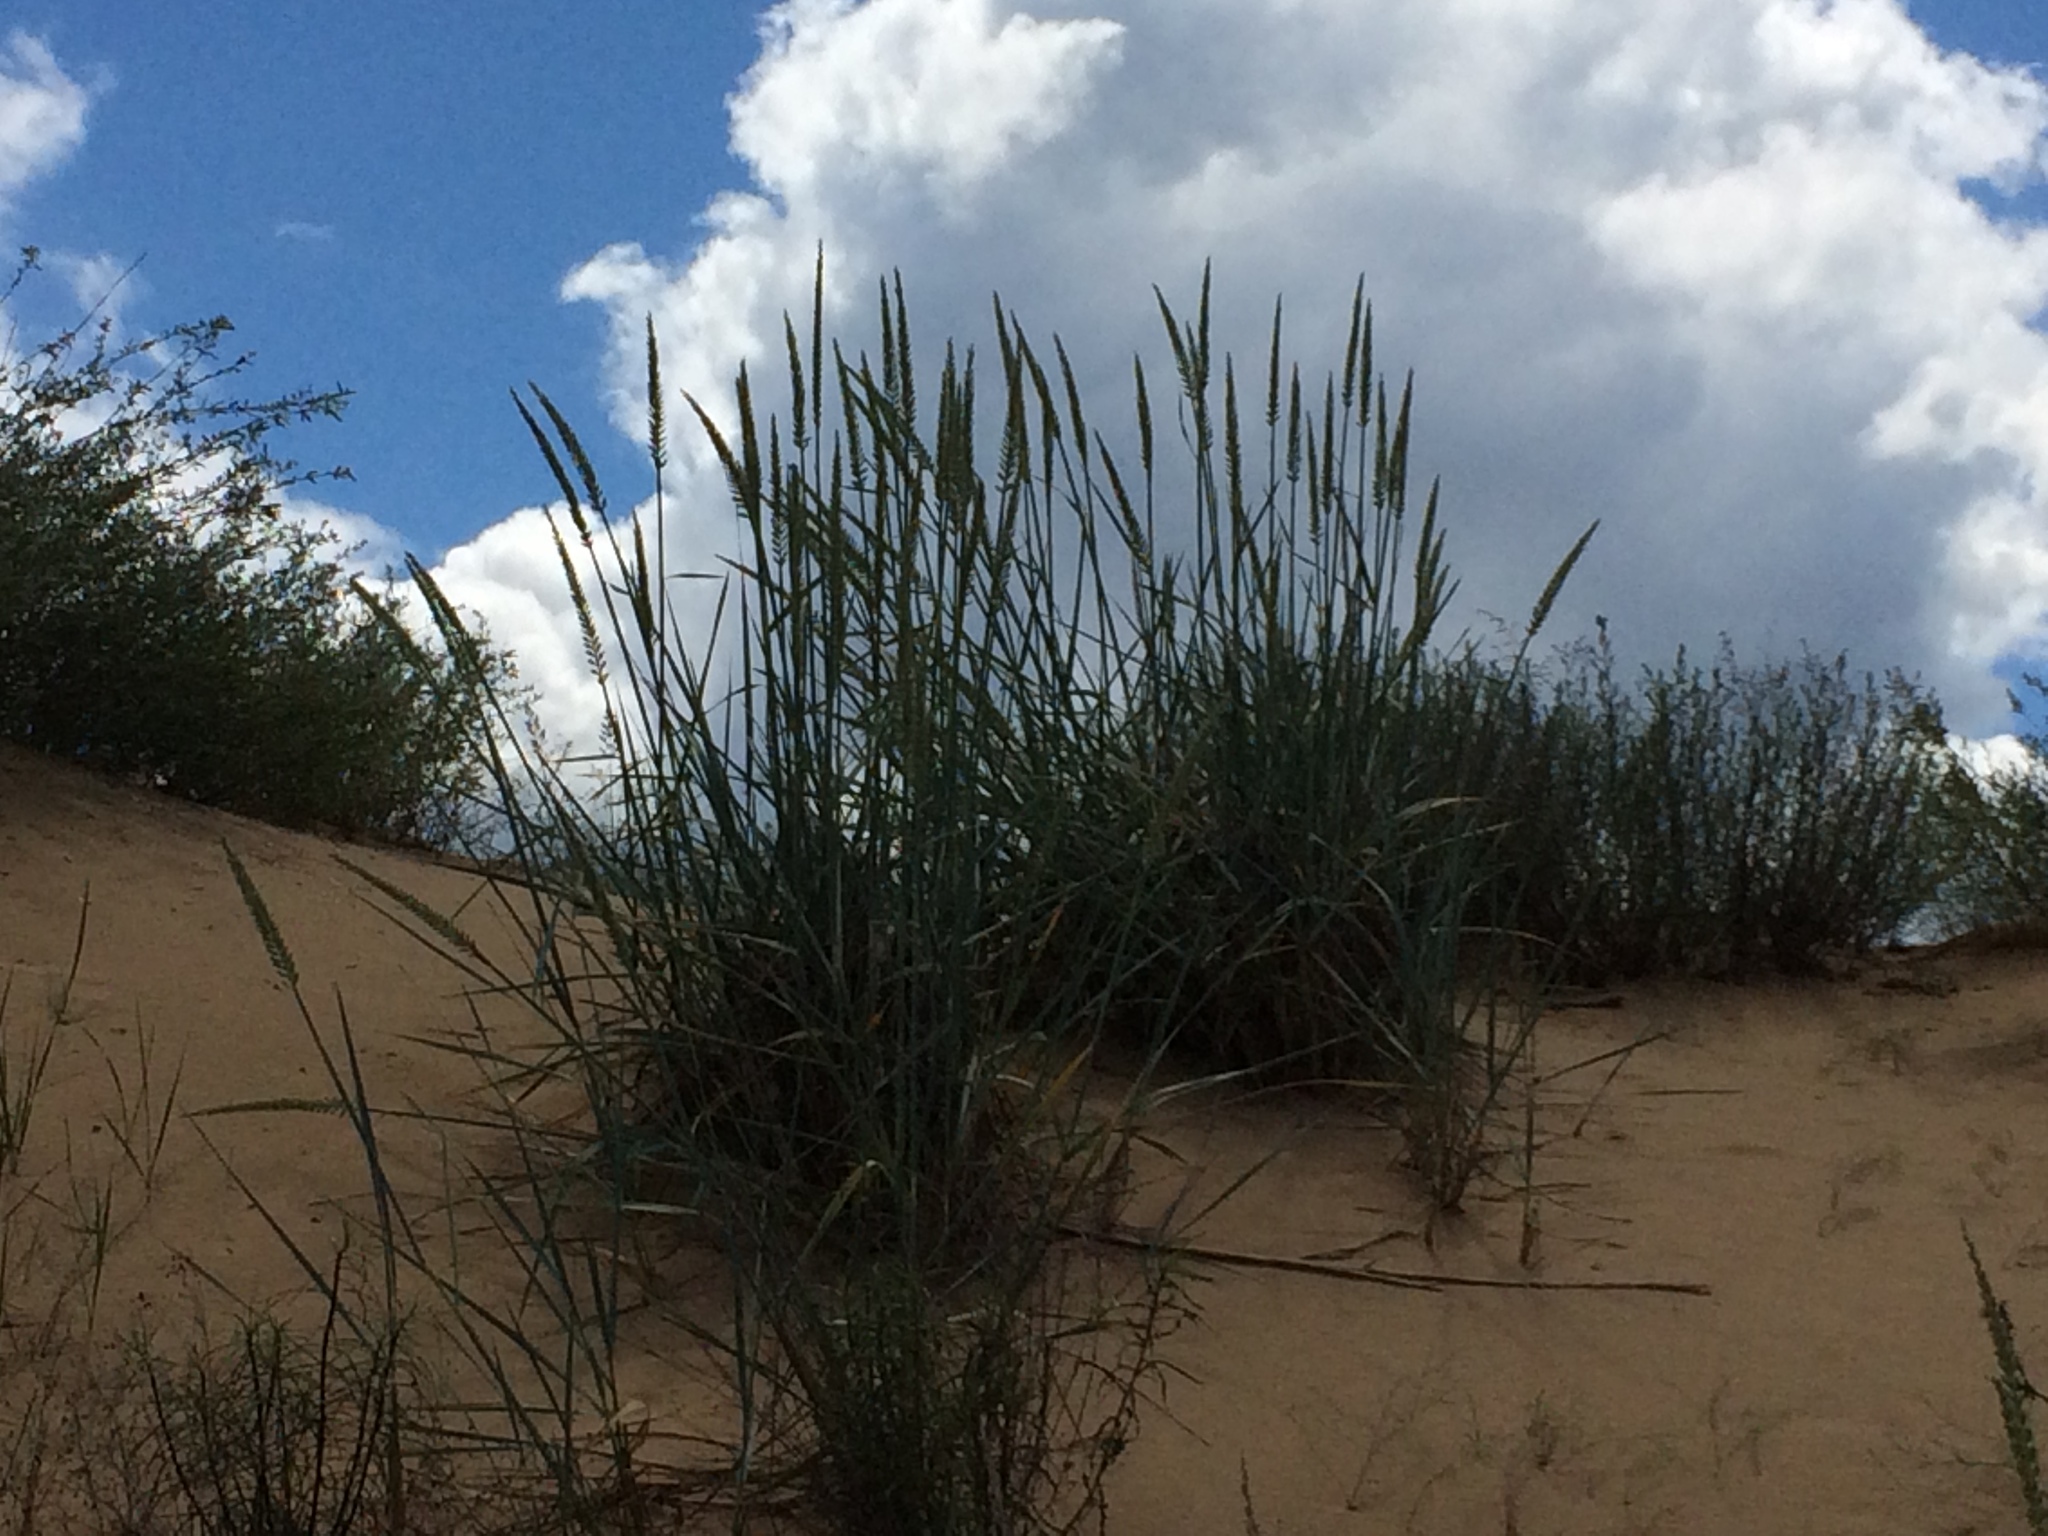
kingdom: Plantae
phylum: Tracheophyta
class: Liliopsida
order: Poales
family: Poaceae
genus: Leymus
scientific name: Leymus racemosus
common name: Mammoth wildrye
